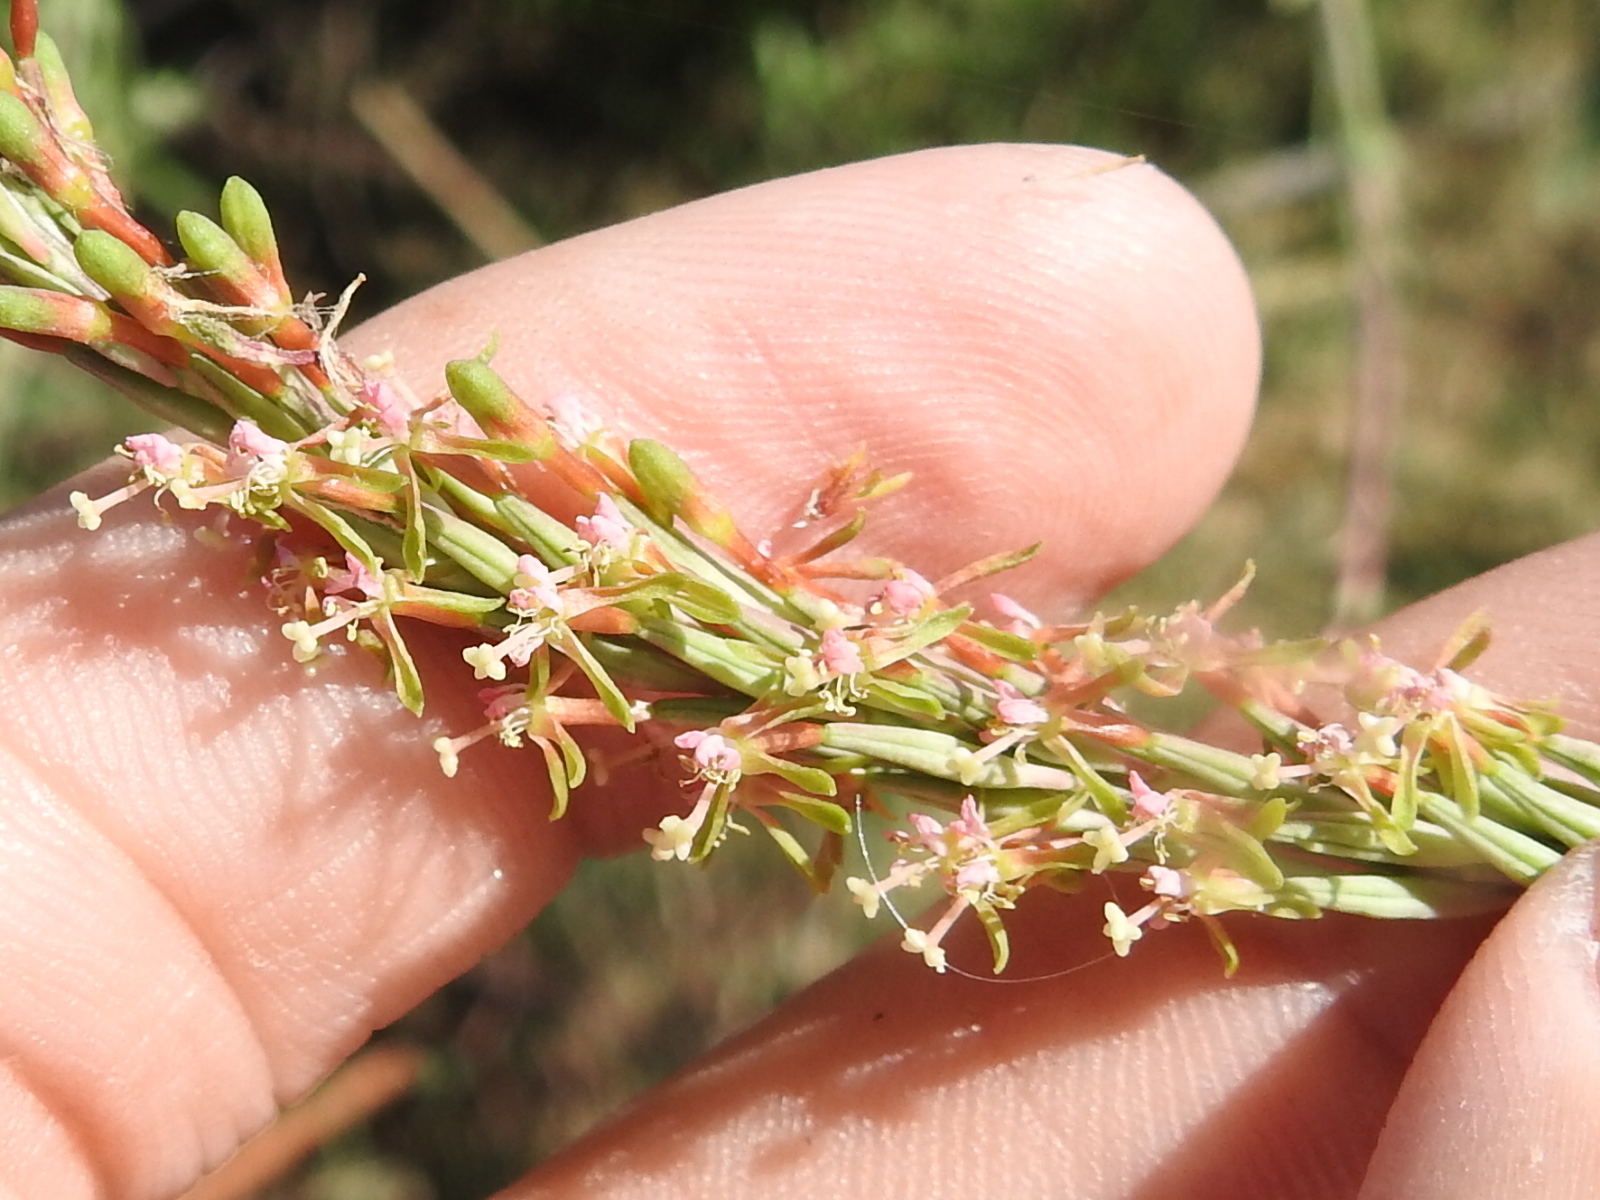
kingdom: Plantae
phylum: Tracheophyta
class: Magnoliopsida
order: Myrtales
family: Onagraceae
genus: Oenothera
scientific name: Oenothera curtiflora
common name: Velvetweed
